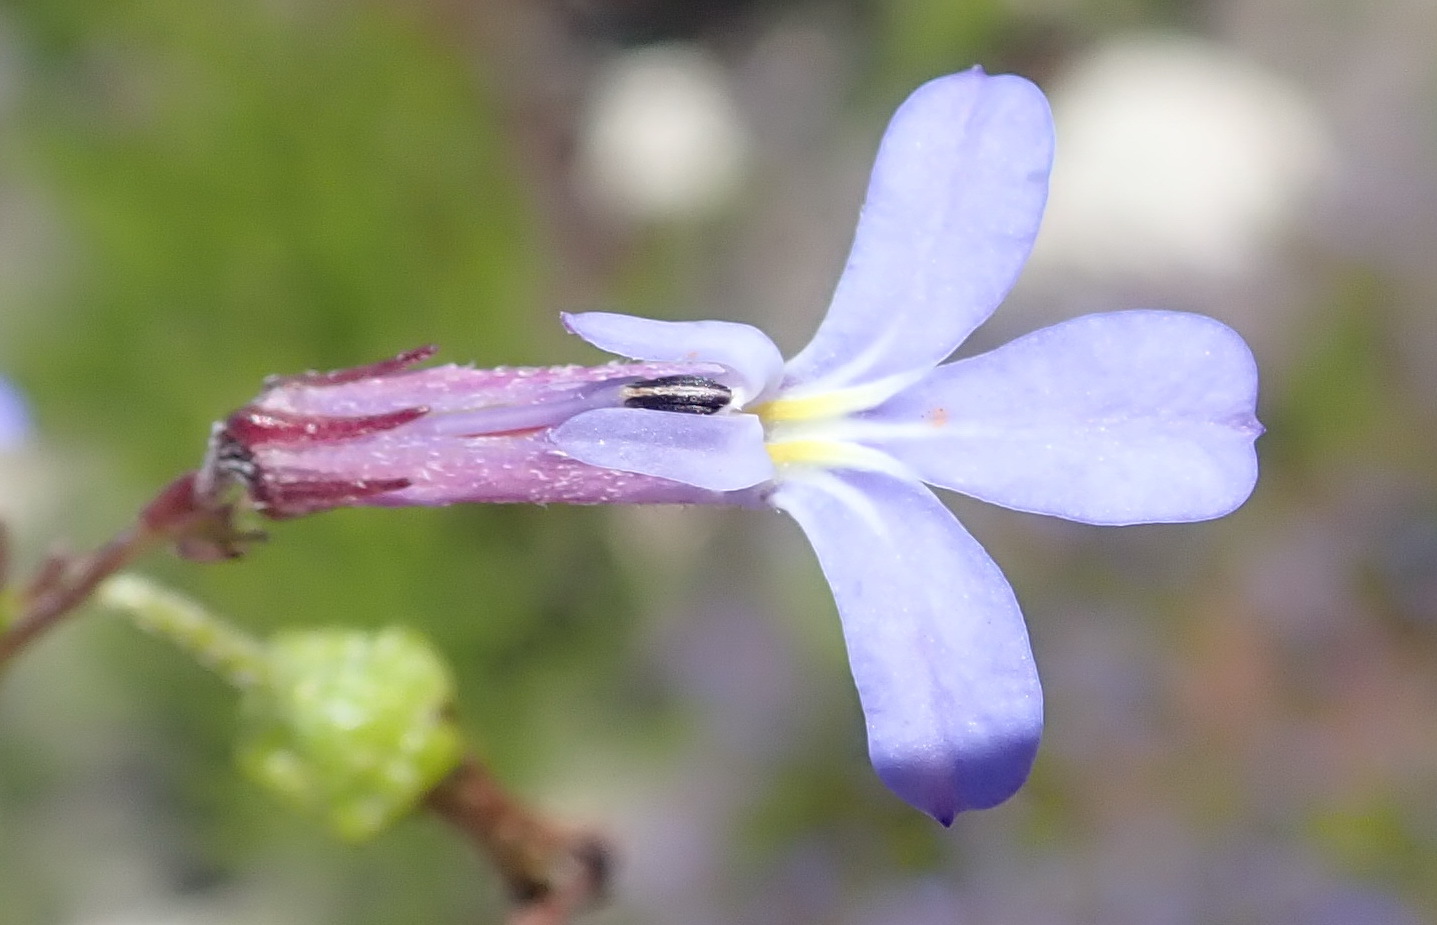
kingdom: Plantae
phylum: Tracheophyta
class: Magnoliopsida
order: Asterales
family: Campanulaceae
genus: Lobelia
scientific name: Lobelia neglecta
